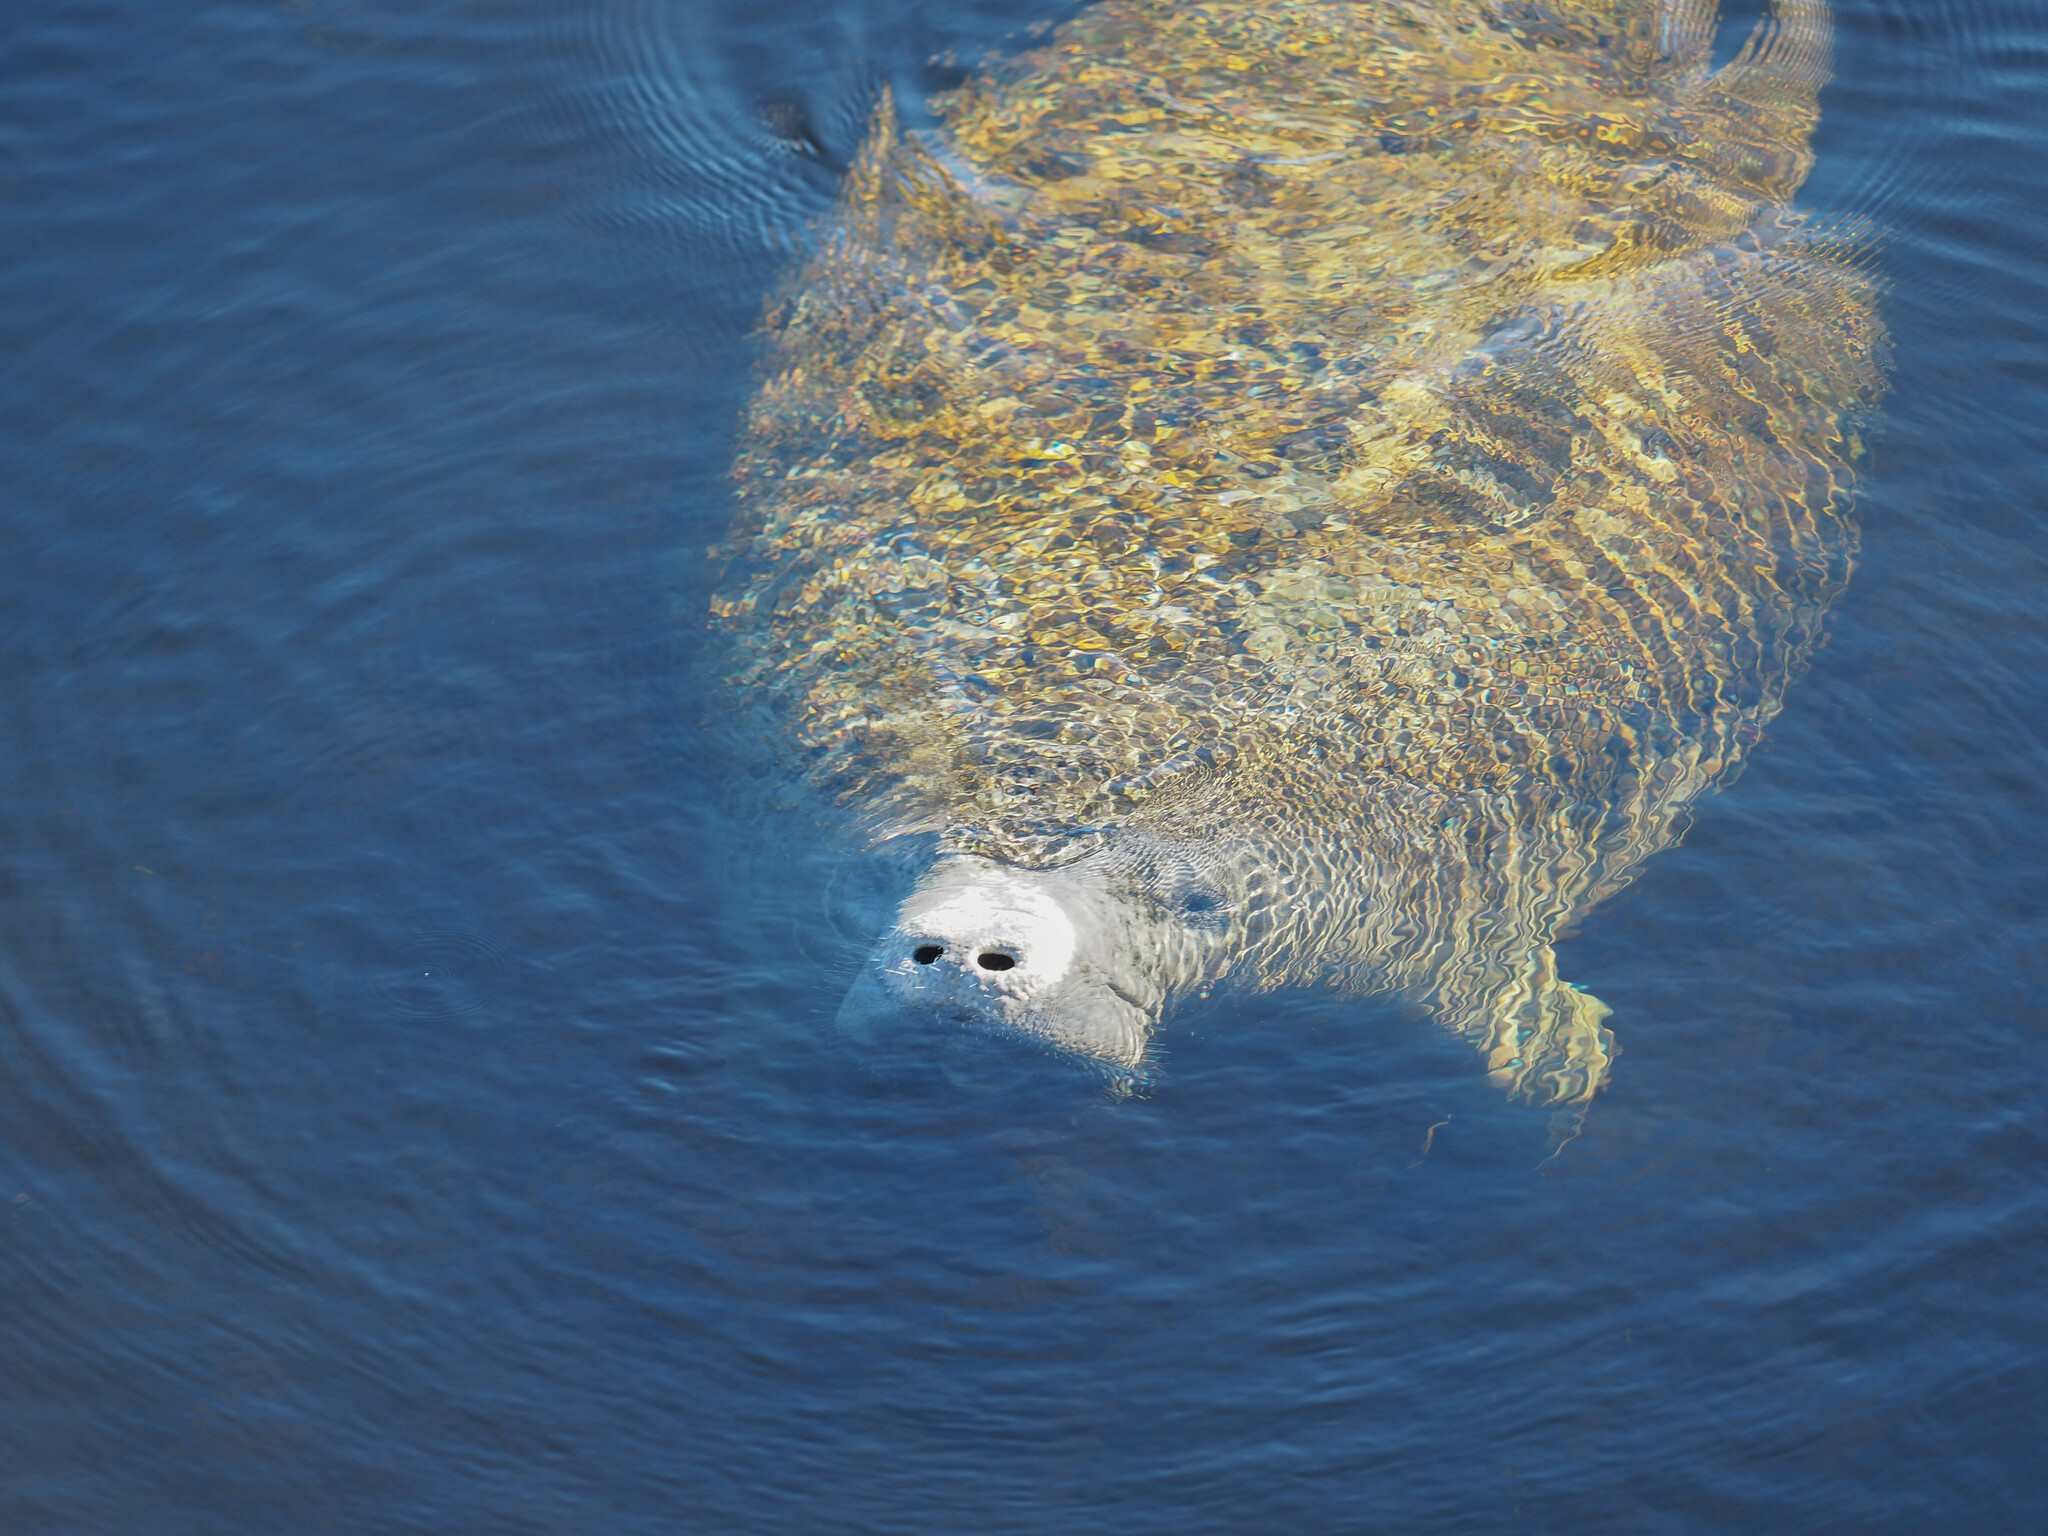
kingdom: Animalia
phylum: Chordata
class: Mammalia
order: Sirenia
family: Trichechidae
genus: Trichechus
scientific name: Trichechus manatus
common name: West indian manatee
